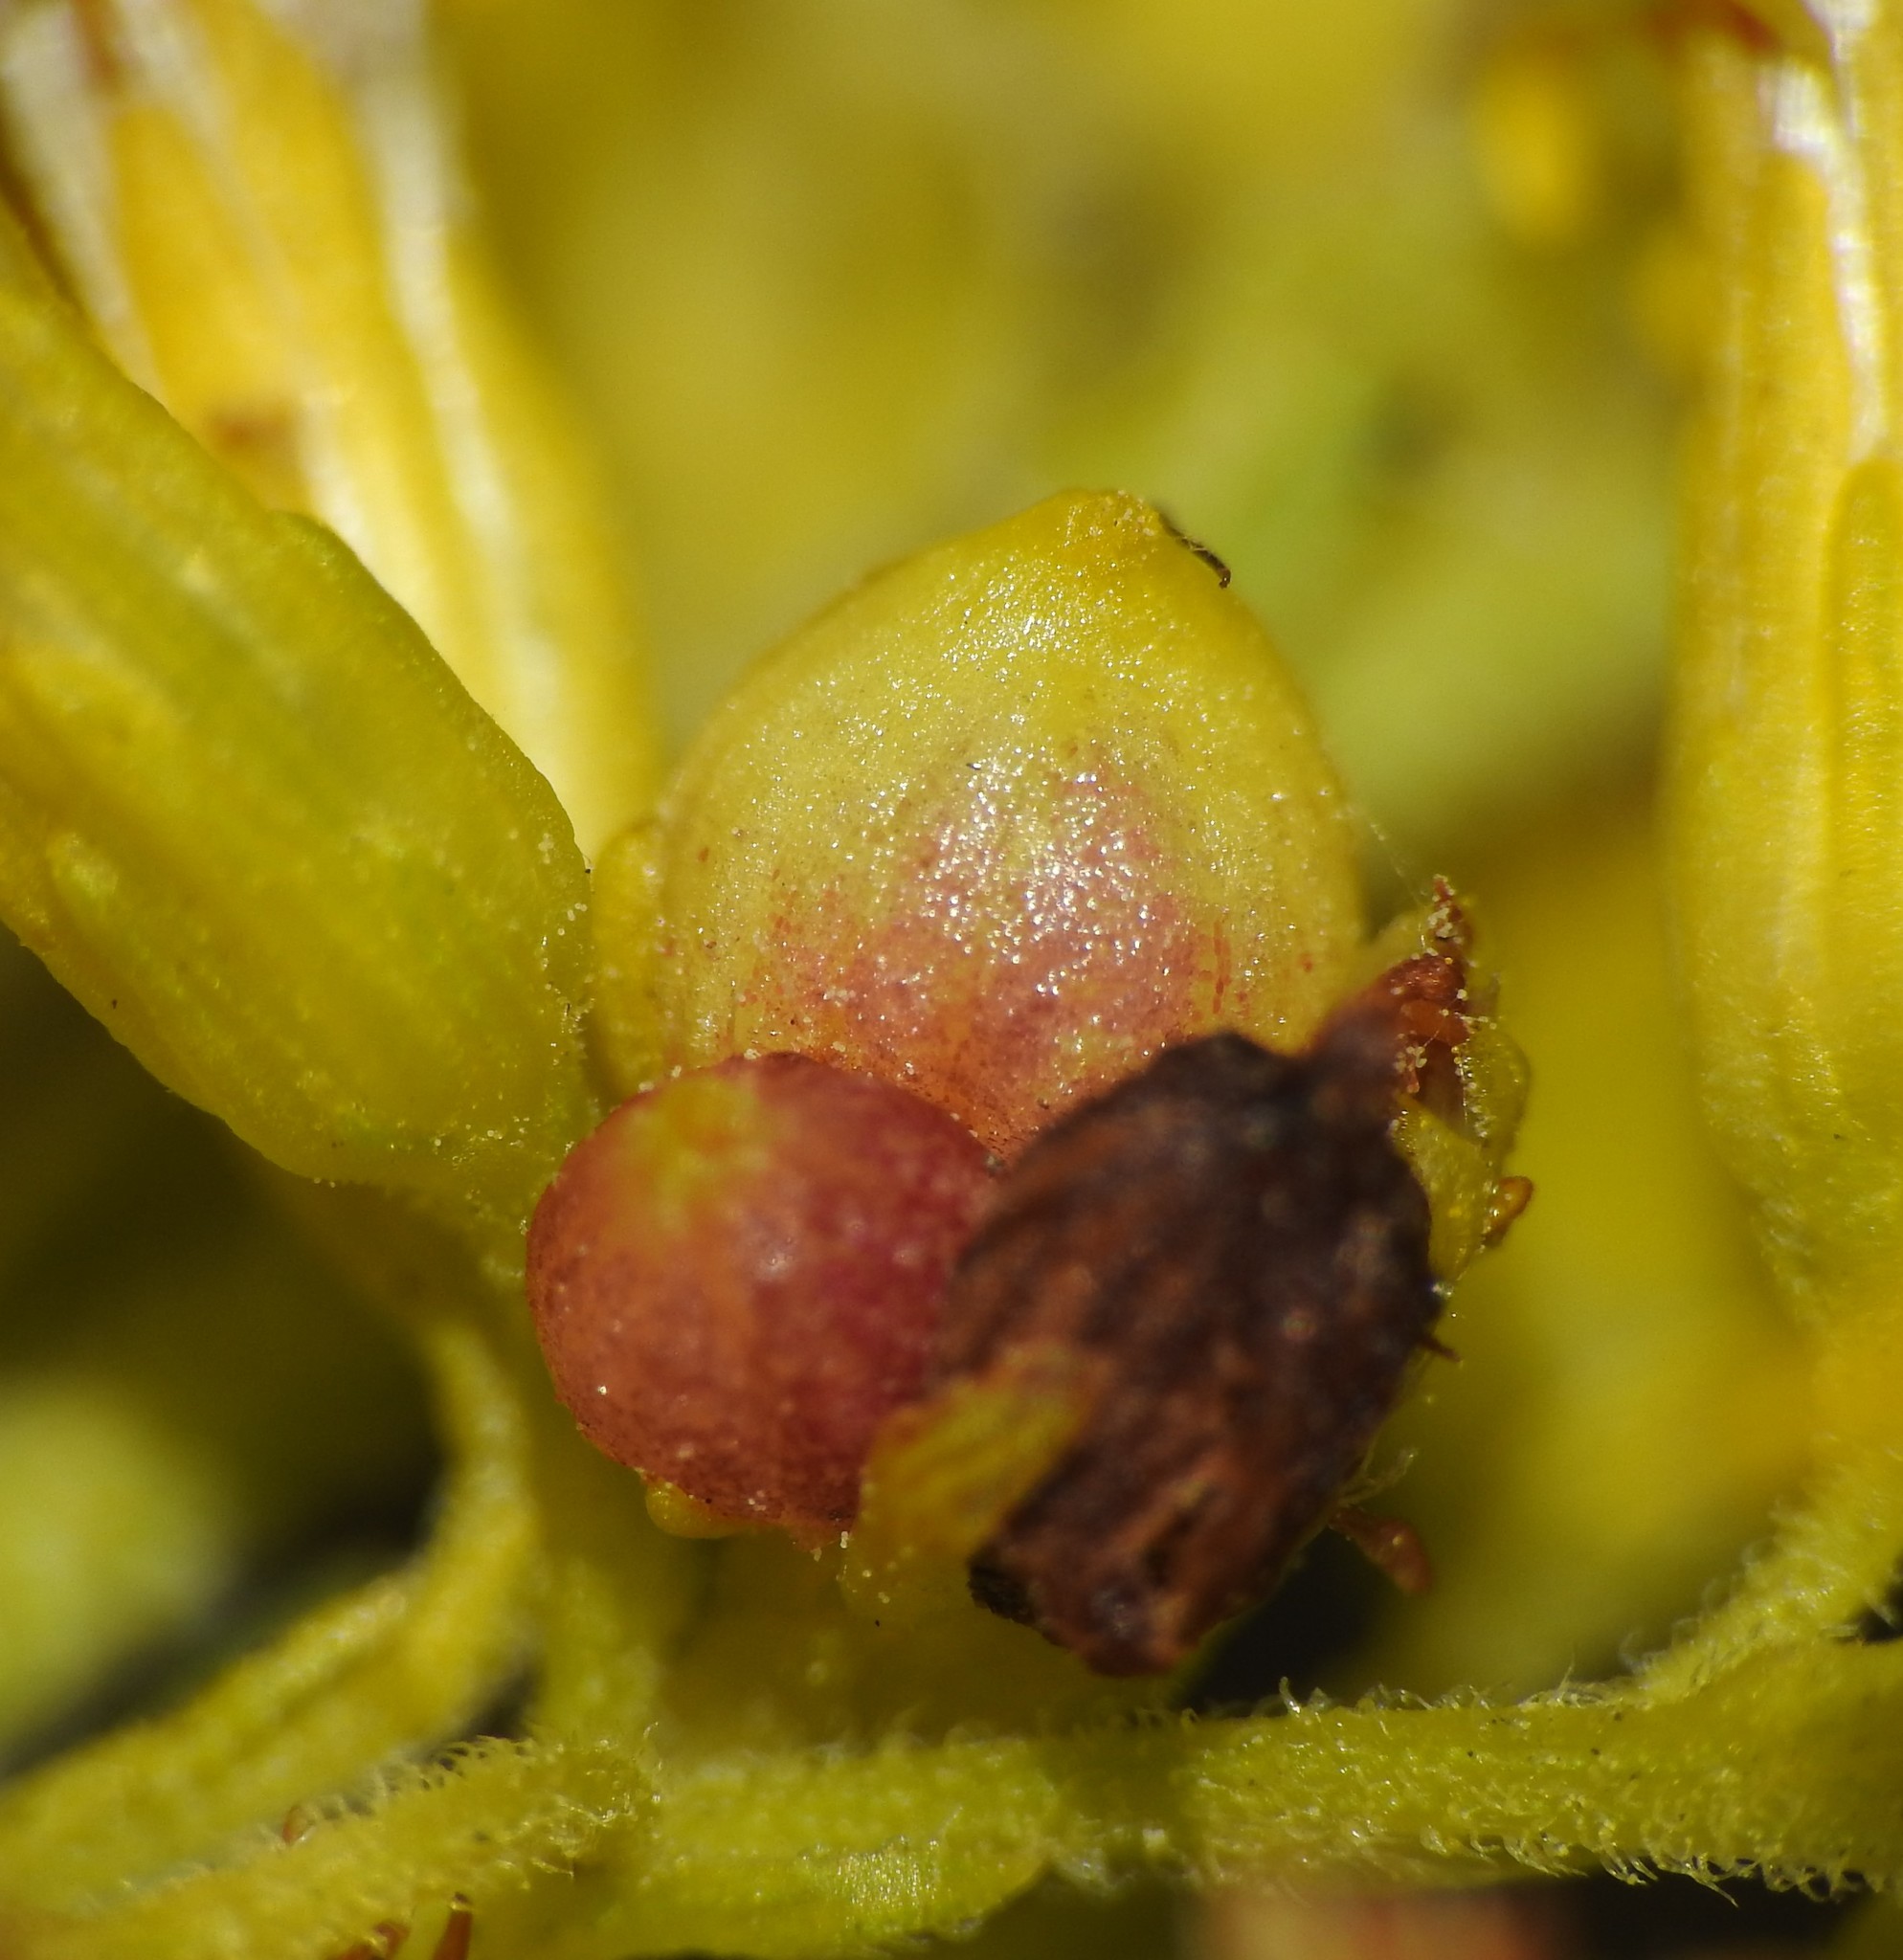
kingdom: Animalia
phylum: Arthropoda
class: Insecta
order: Diptera
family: Cecidomyiidae
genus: Schizomyia
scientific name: Schizomyia racemicola
